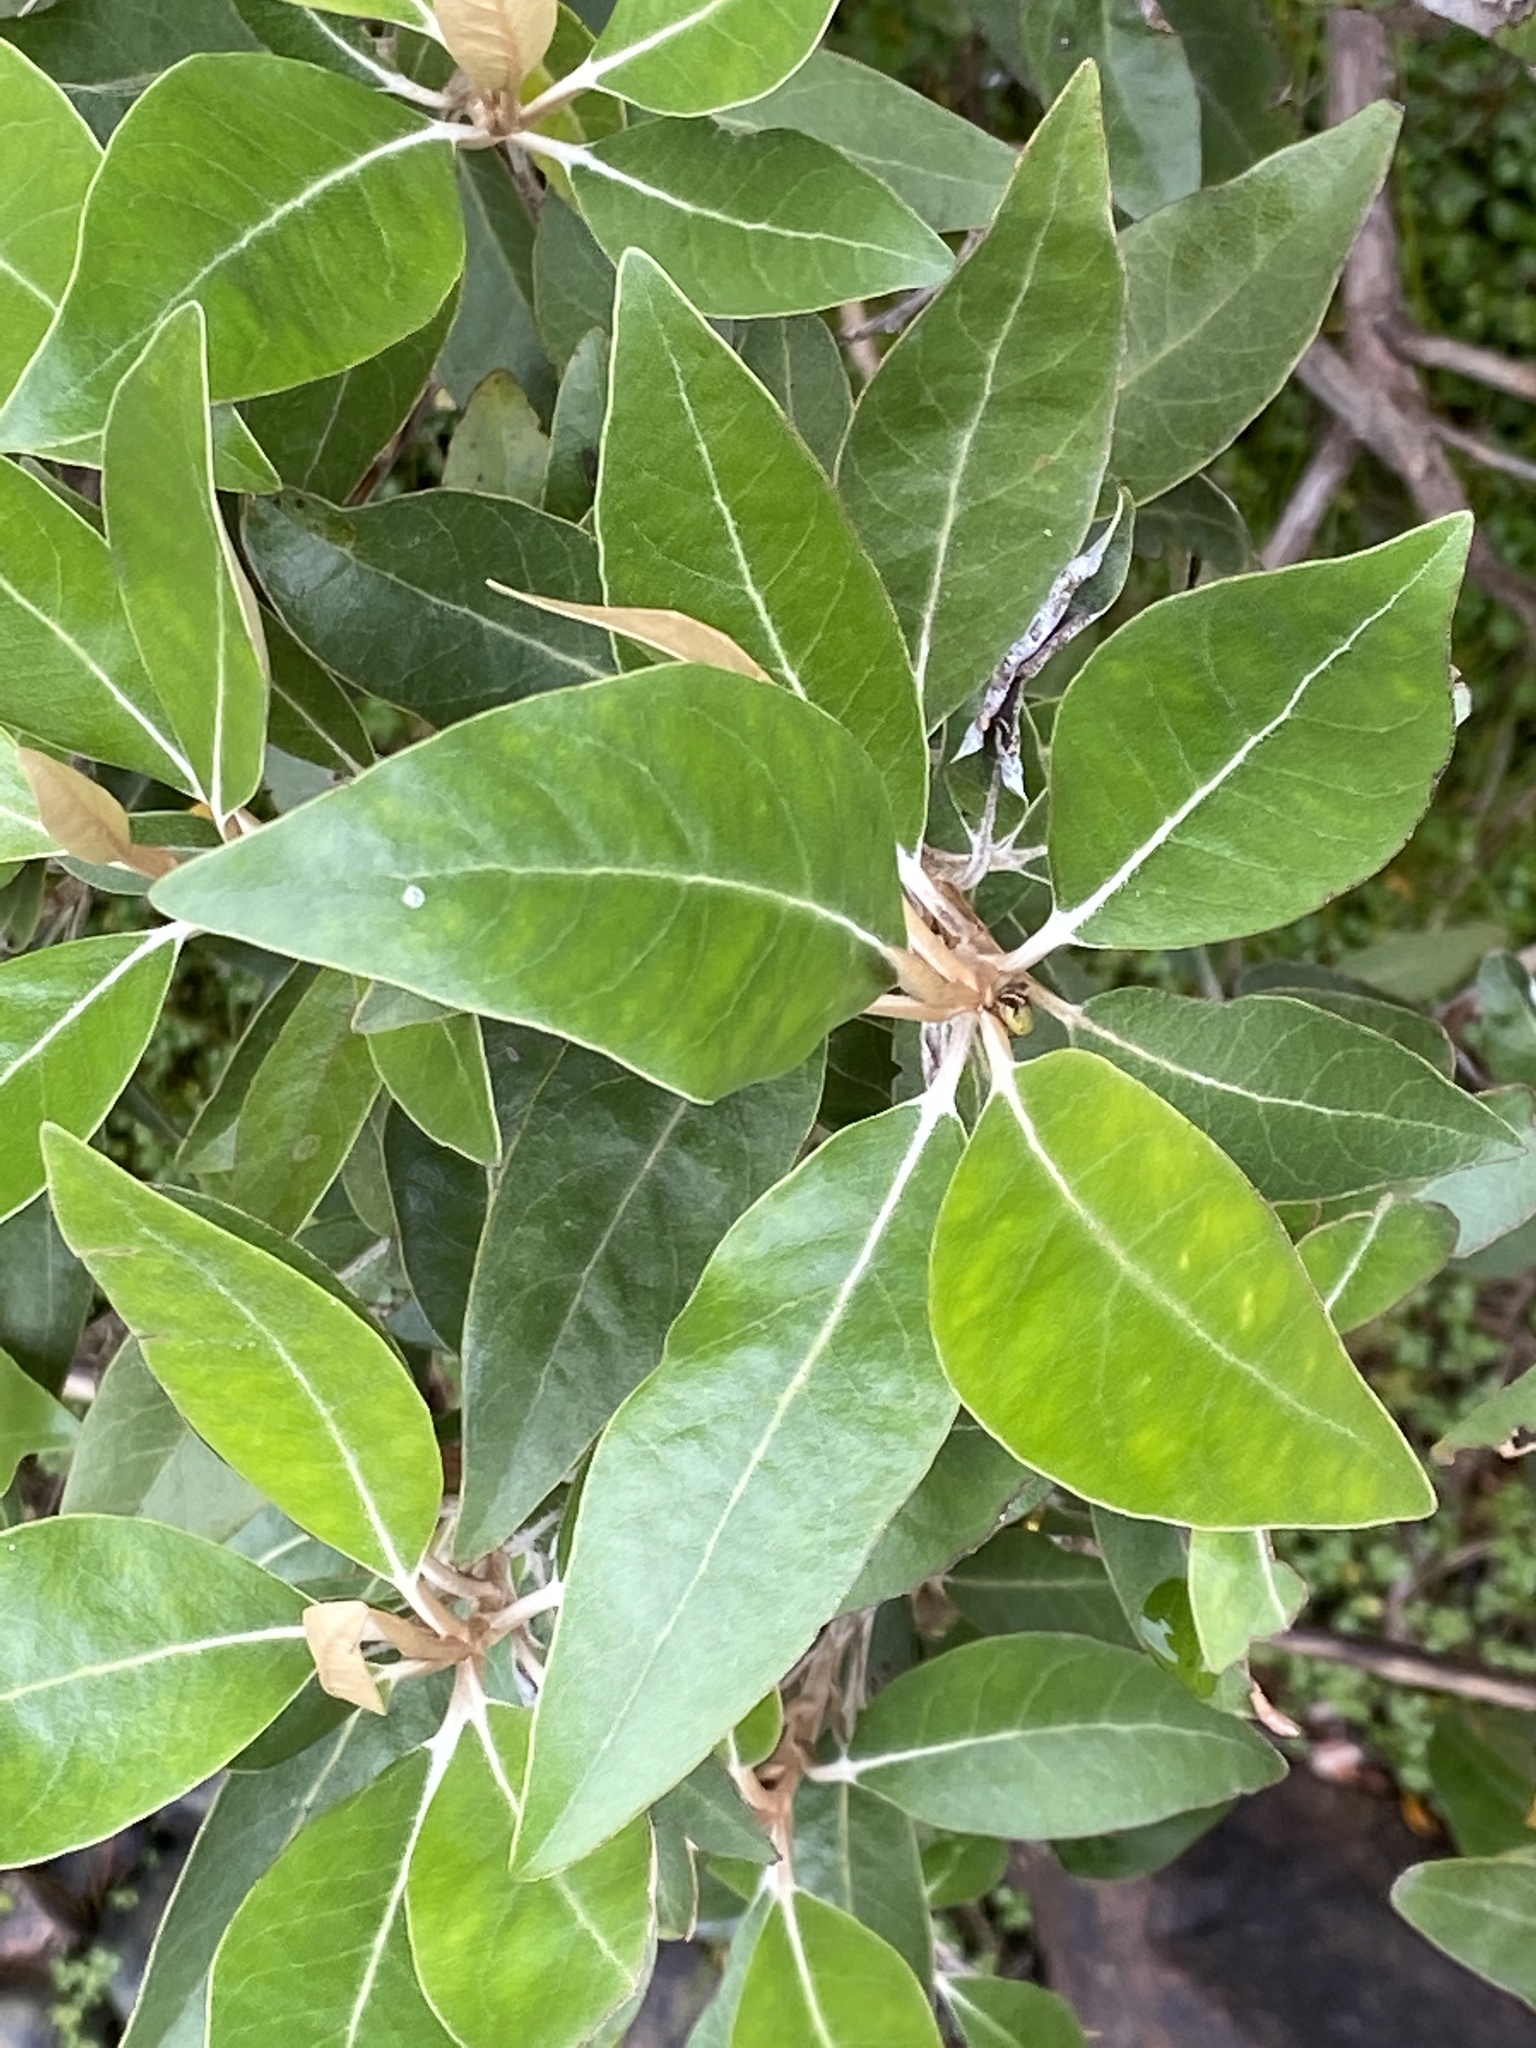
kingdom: Plantae
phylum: Tracheophyta
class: Magnoliopsida
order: Asterales
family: Asteraceae
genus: Olearia
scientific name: Olearia avicenniifolia
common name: Mangrove-leaf daisybush
